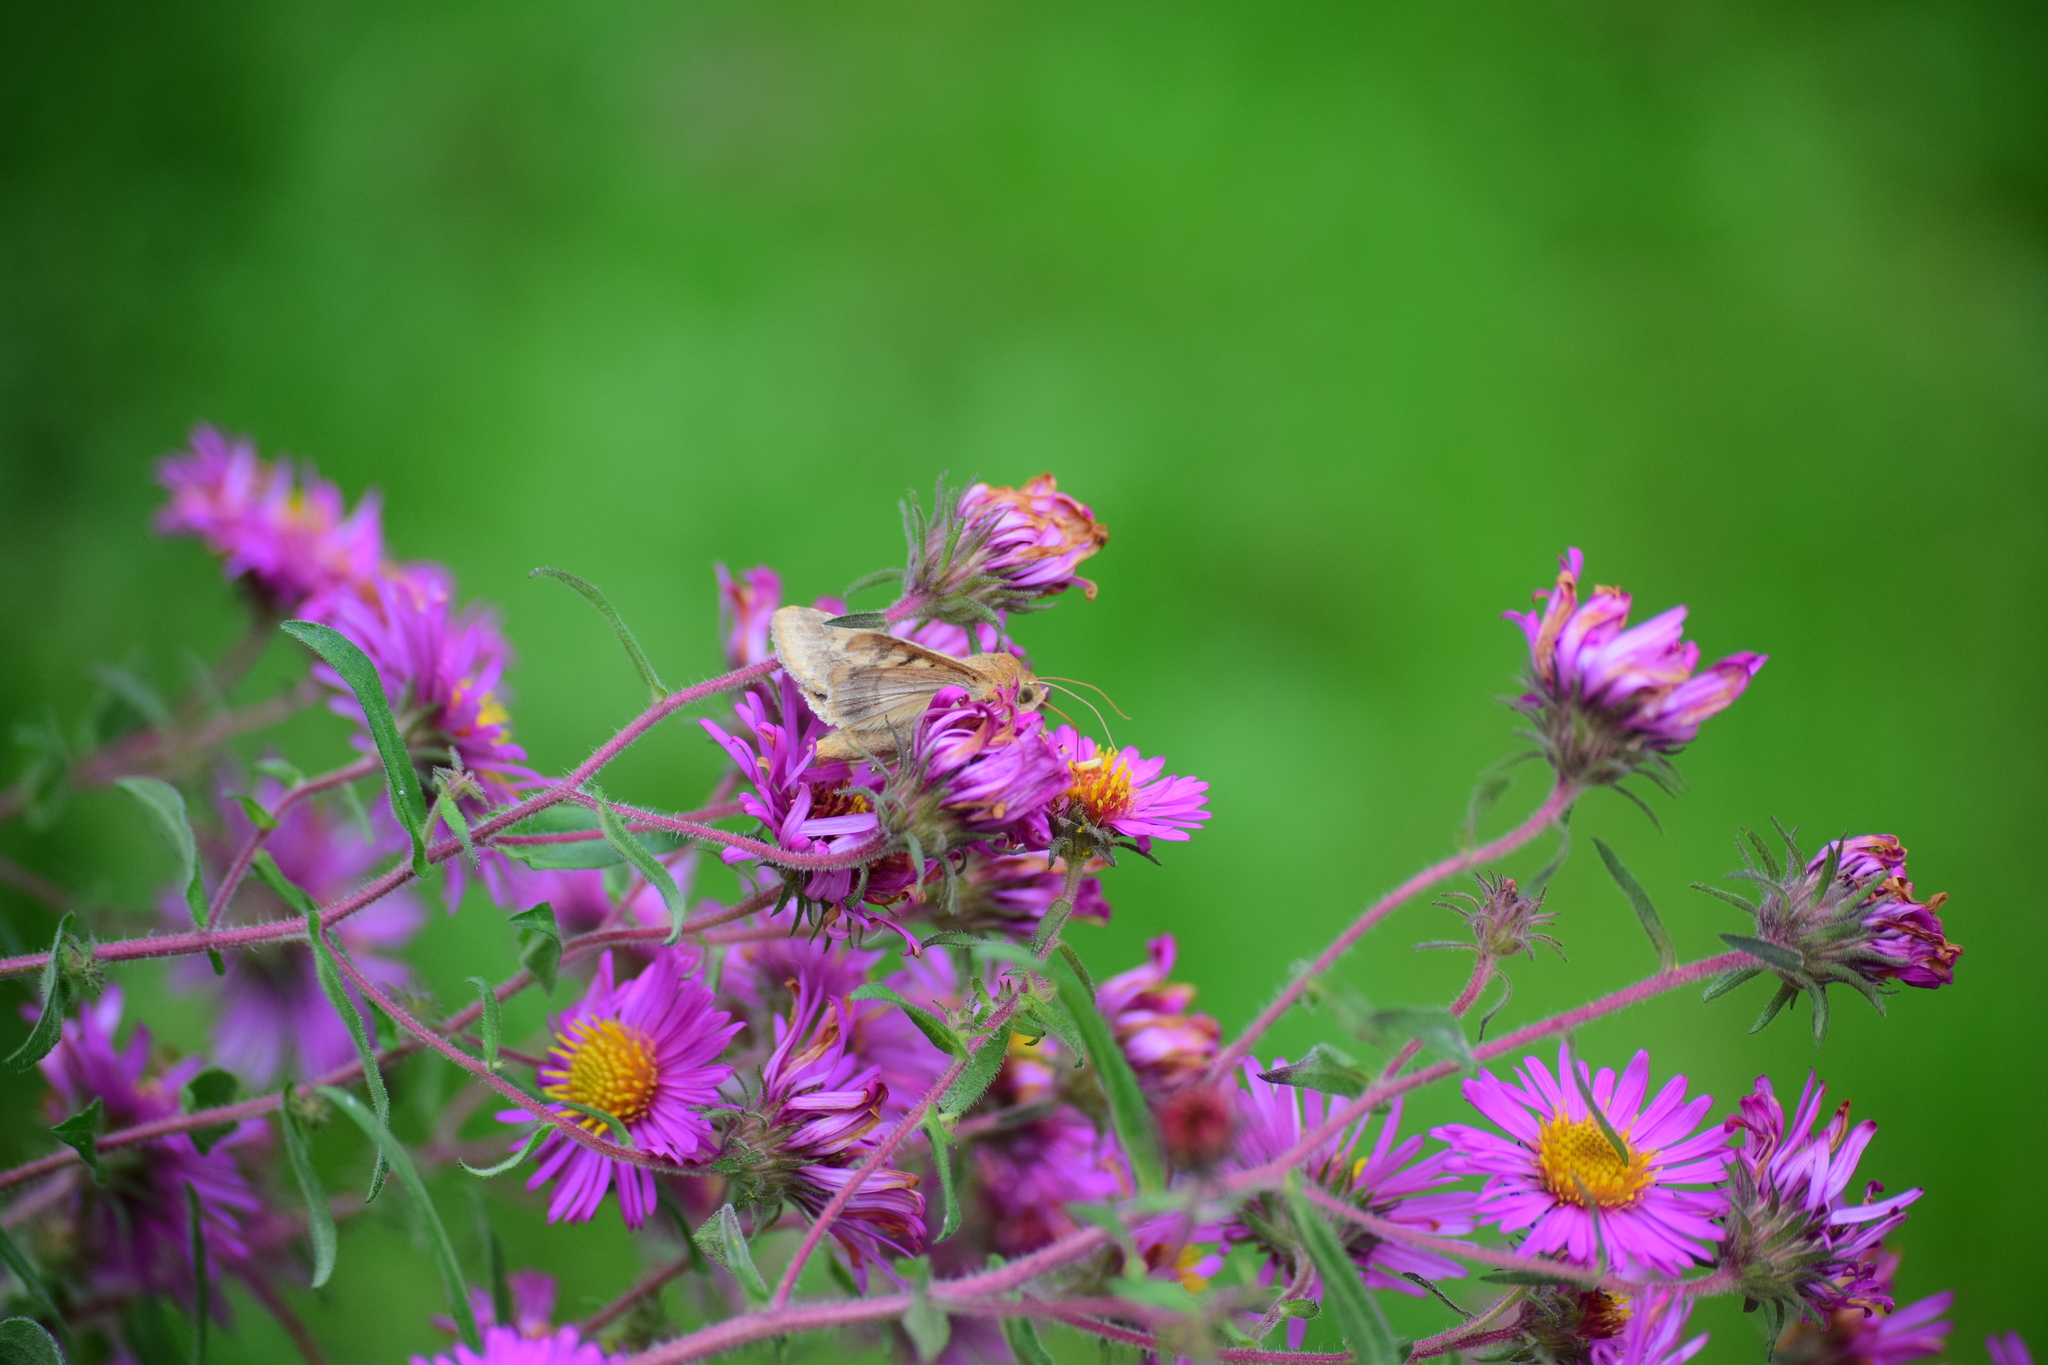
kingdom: Animalia
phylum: Arthropoda
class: Insecta
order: Lepidoptera
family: Noctuidae
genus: Helicoverpa
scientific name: Helicoverpa zea
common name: Bollworm
